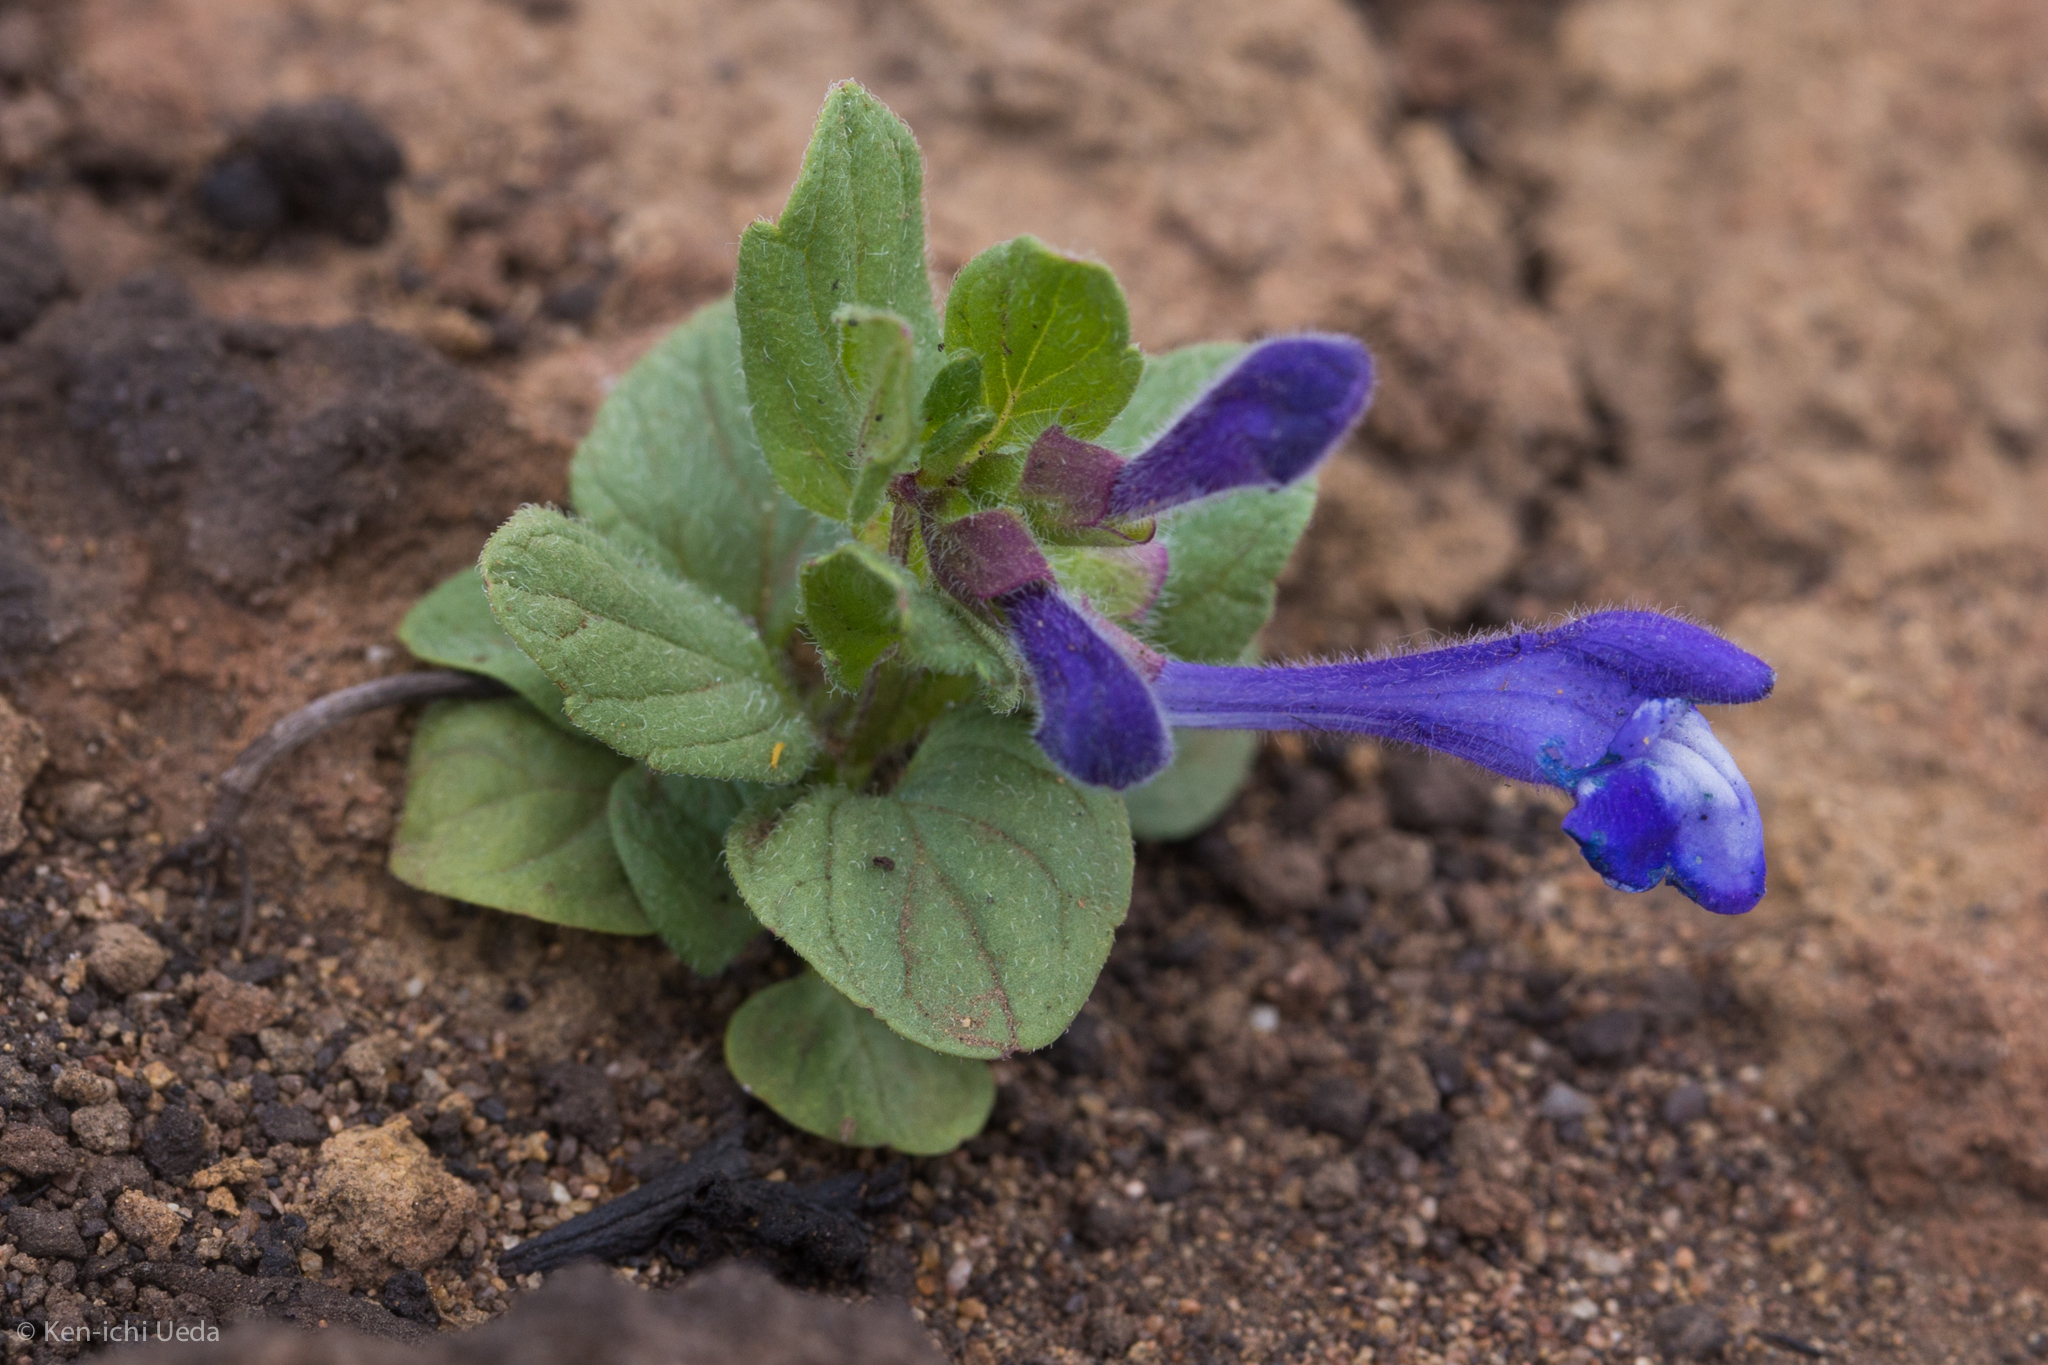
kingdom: Plantae
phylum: Tracheophyta
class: Magnoliopsida
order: Lamiales
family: Lamiaceae
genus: Scutellaria
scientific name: Scutellaria tuberosa
